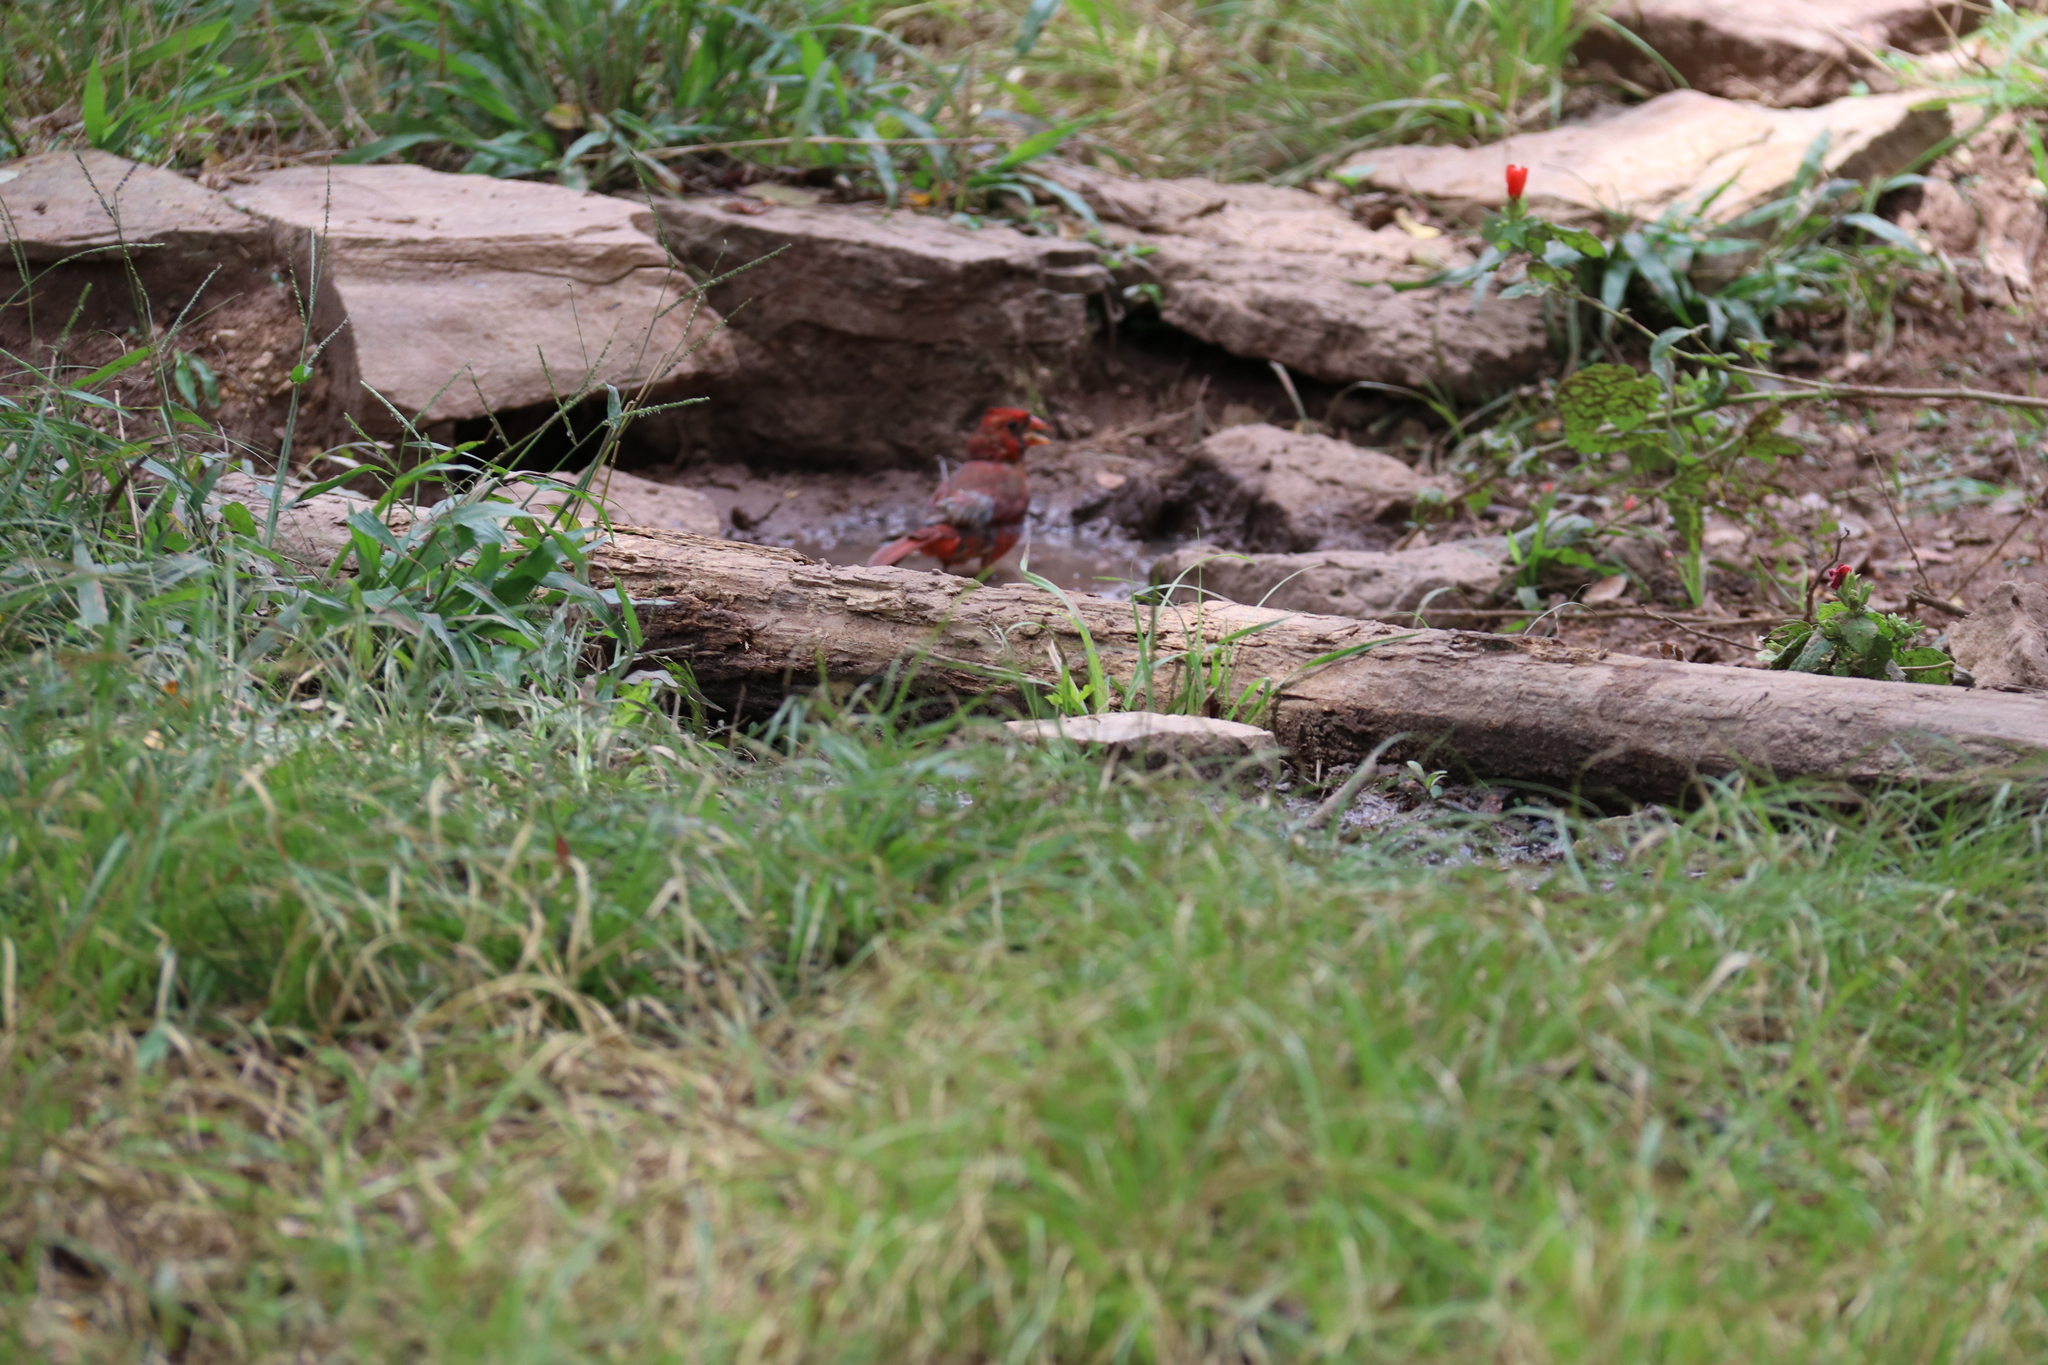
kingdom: Animalia
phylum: Chordata
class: Aves
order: Passeriformes
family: Cardinalidae
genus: Cardinalis
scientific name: Cardinalis cardinalis
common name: Northern cardinal
